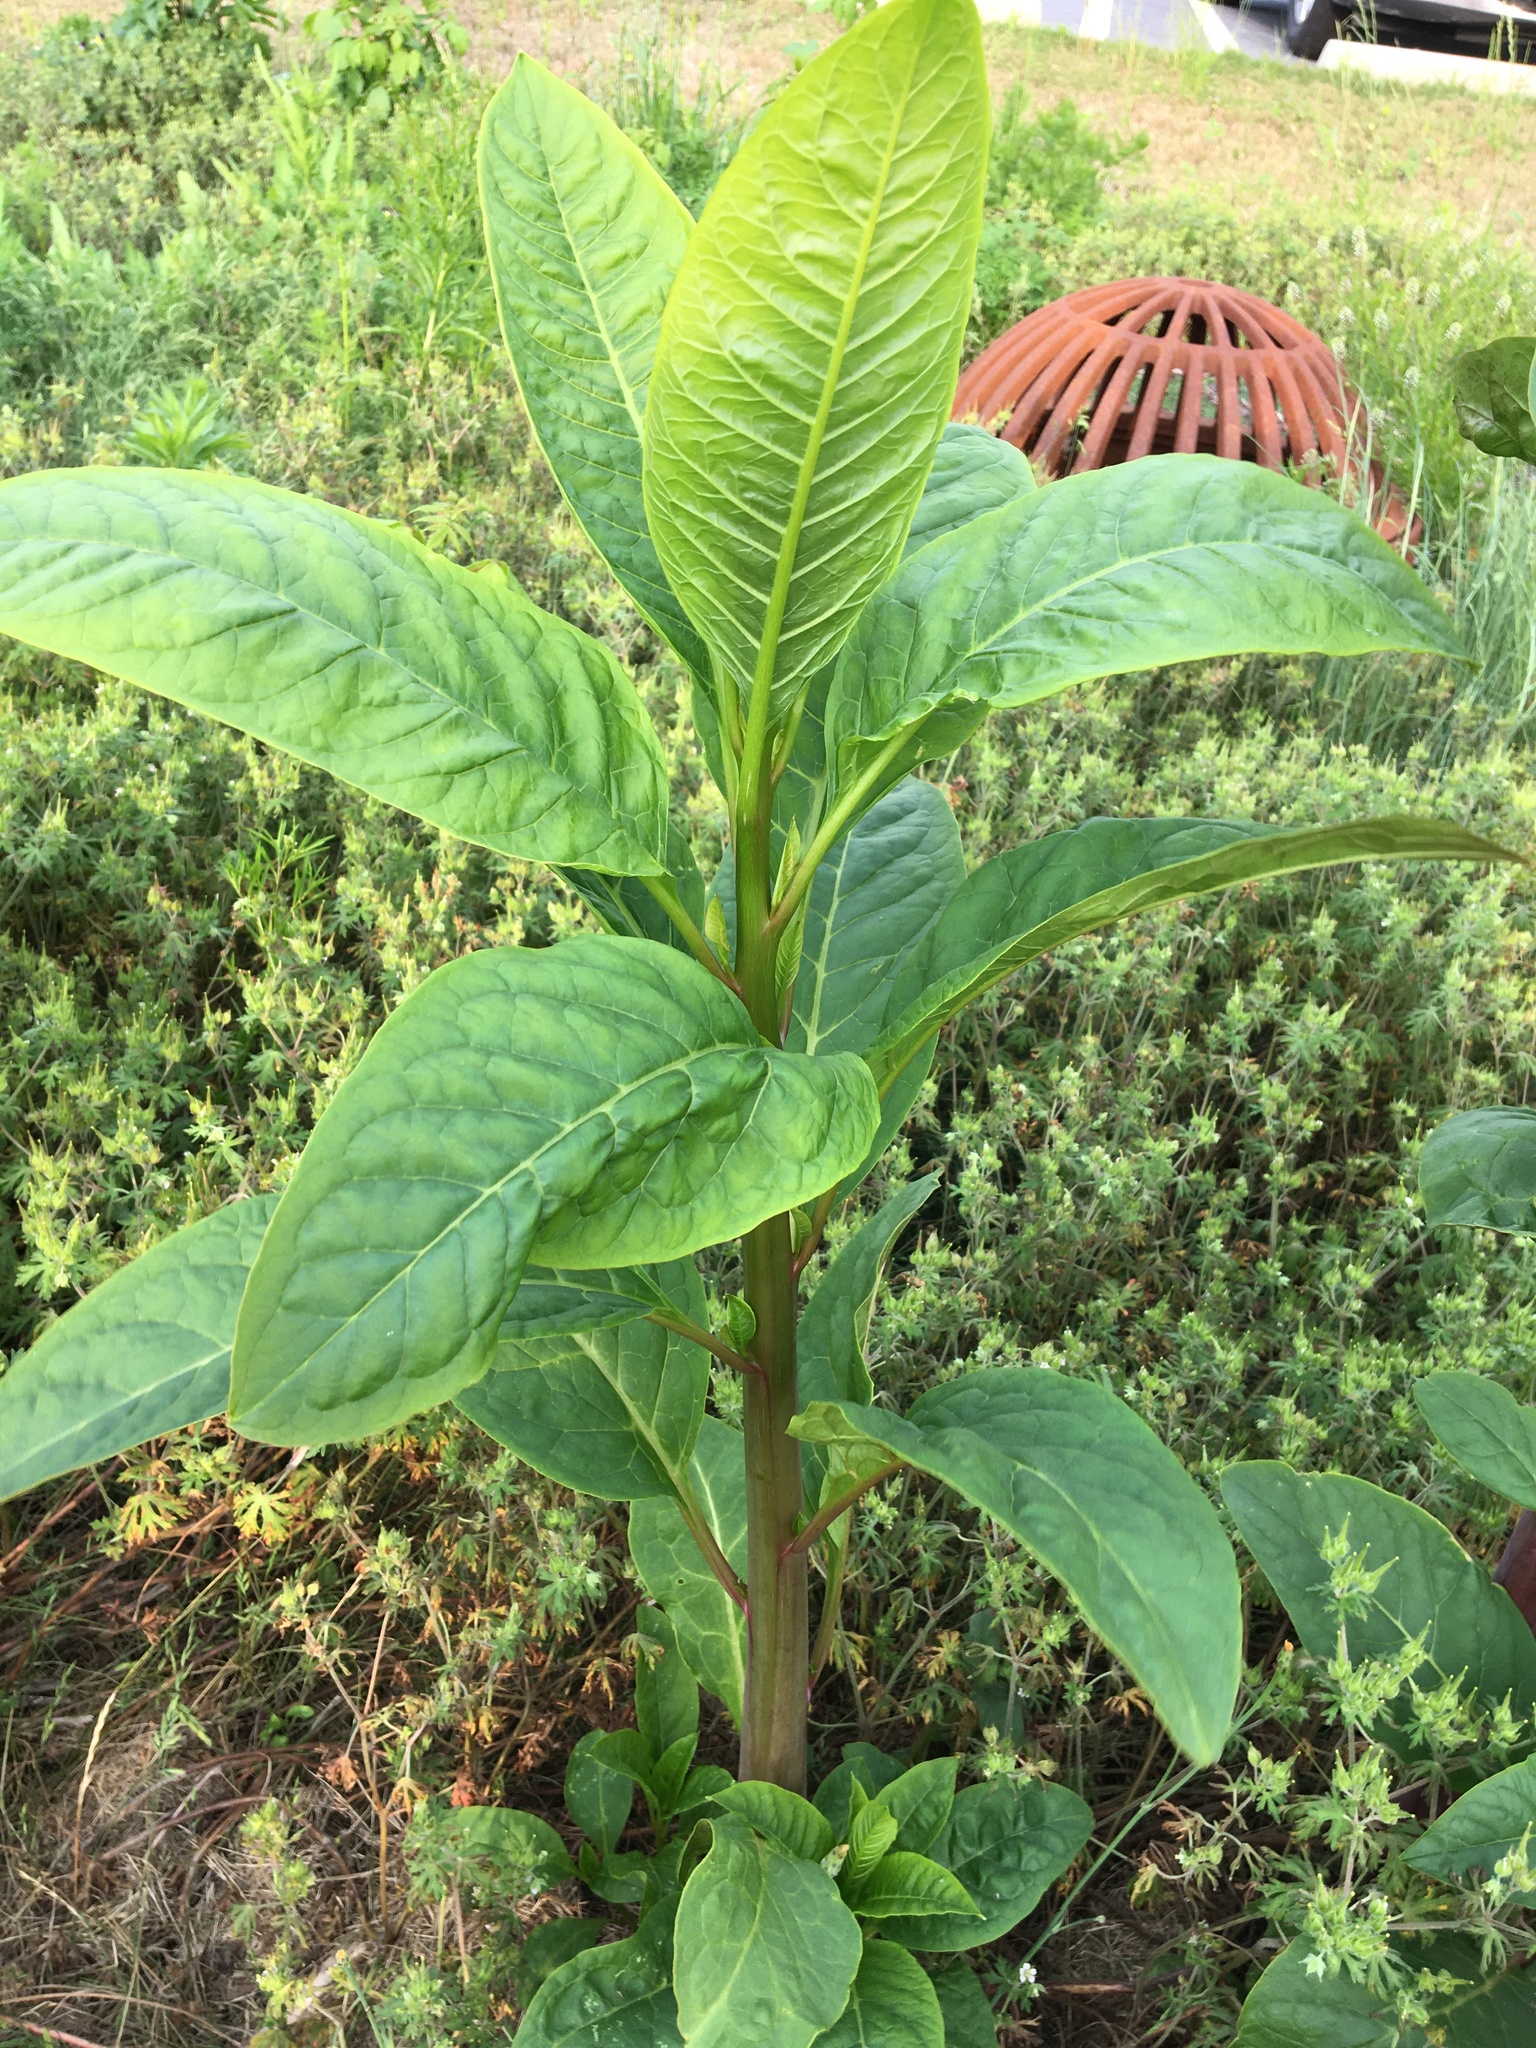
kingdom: Plantae
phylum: Tracheophyta
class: Magnoliopsida
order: Caryophyllales
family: Phytolaccaceae
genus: Phytolacca
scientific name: Phytolacca americana
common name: American pokeweed
